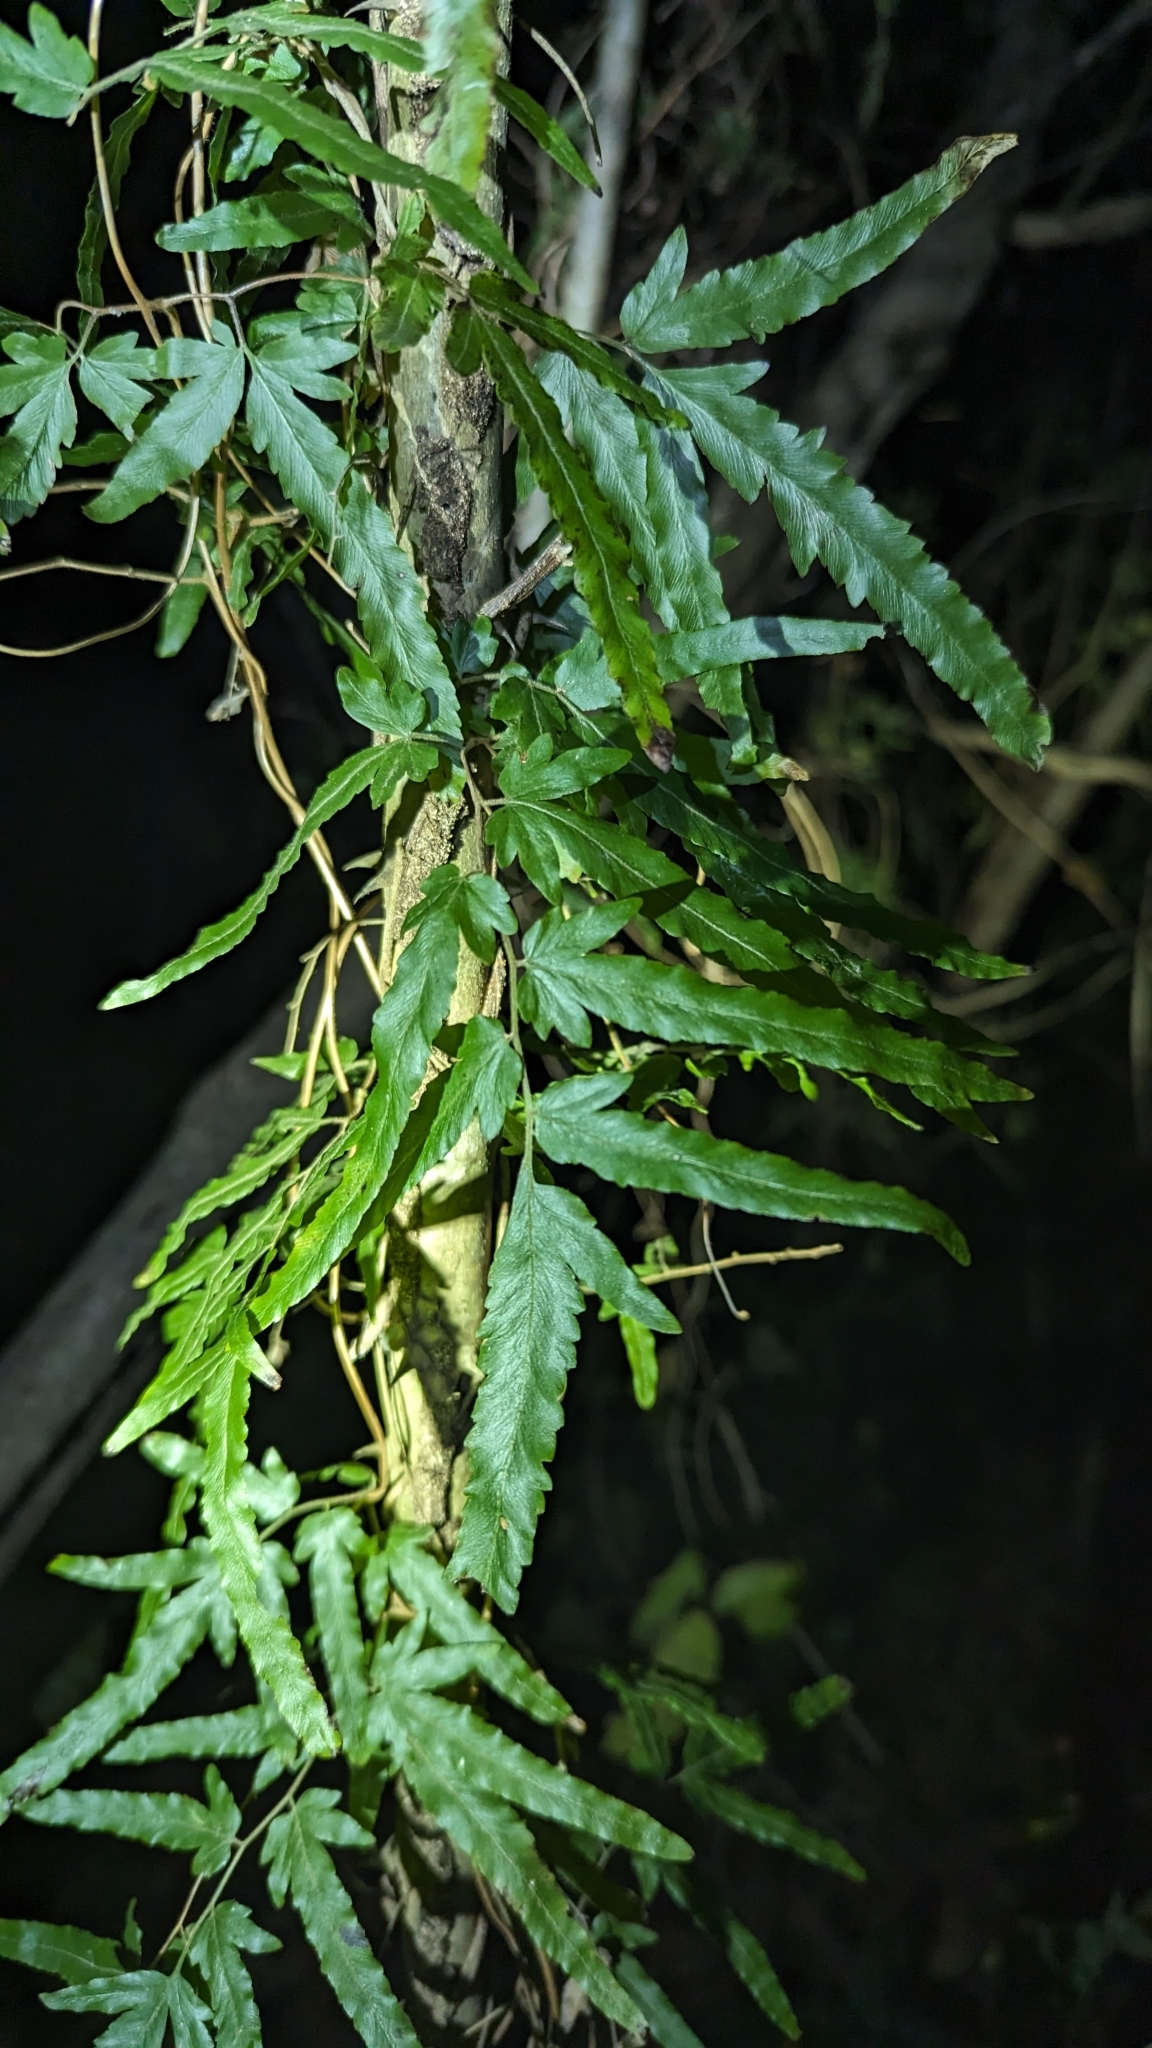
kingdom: Plantae
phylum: Tracheophyta
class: Polypodiopsida
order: Schizaeales
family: Lygodiaceae
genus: Lygodium
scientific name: Lygodium venustum
